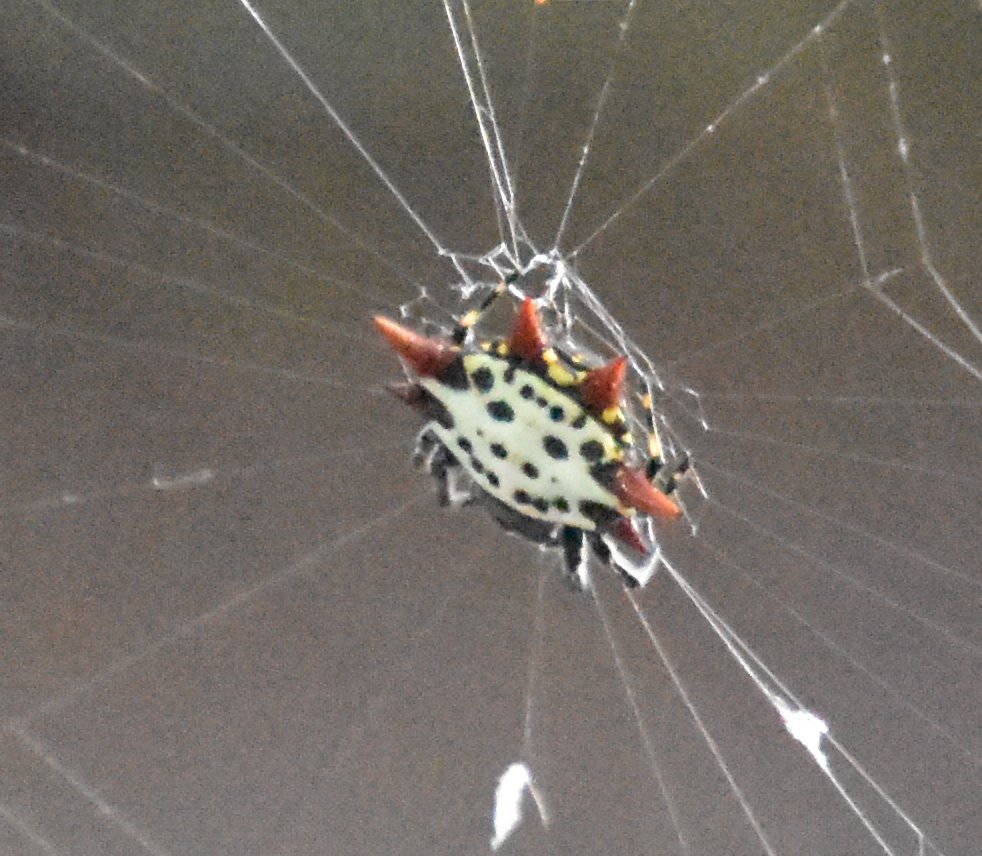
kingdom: Animalia
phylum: Arthropoda
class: Arachnida
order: Araneae
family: Araneidae
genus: Gasteracantha
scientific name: Gasteracantha cancriformis
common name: Orb weavers
